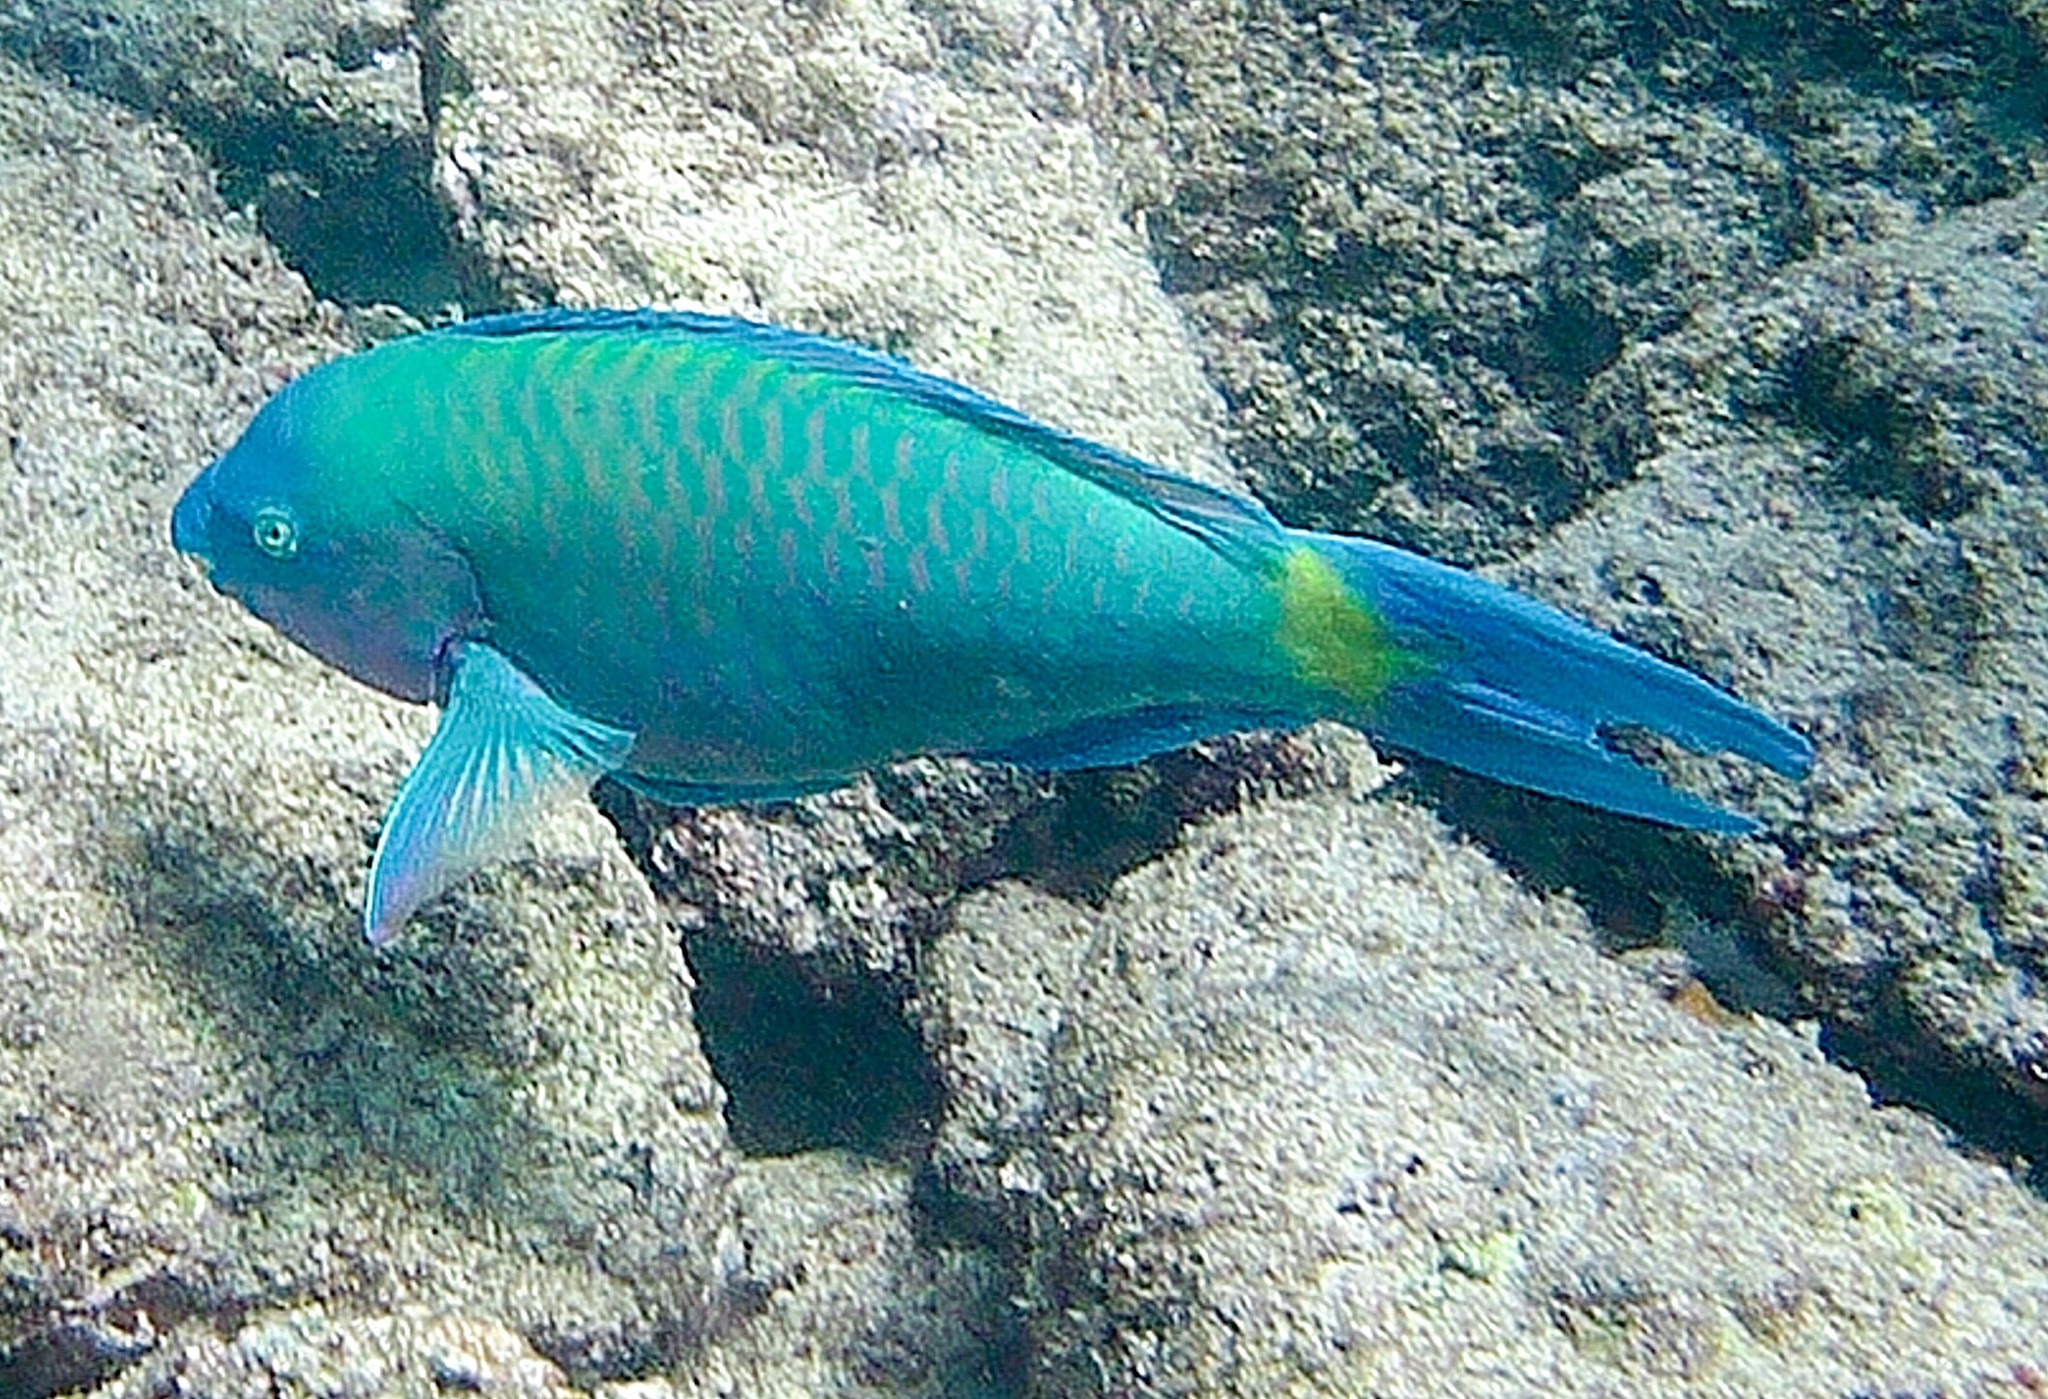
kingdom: Animalia
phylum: Chordata
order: Perciformes
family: Scaridae
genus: Scarus
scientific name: Scarus psittacus
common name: Palenose parrotfish
